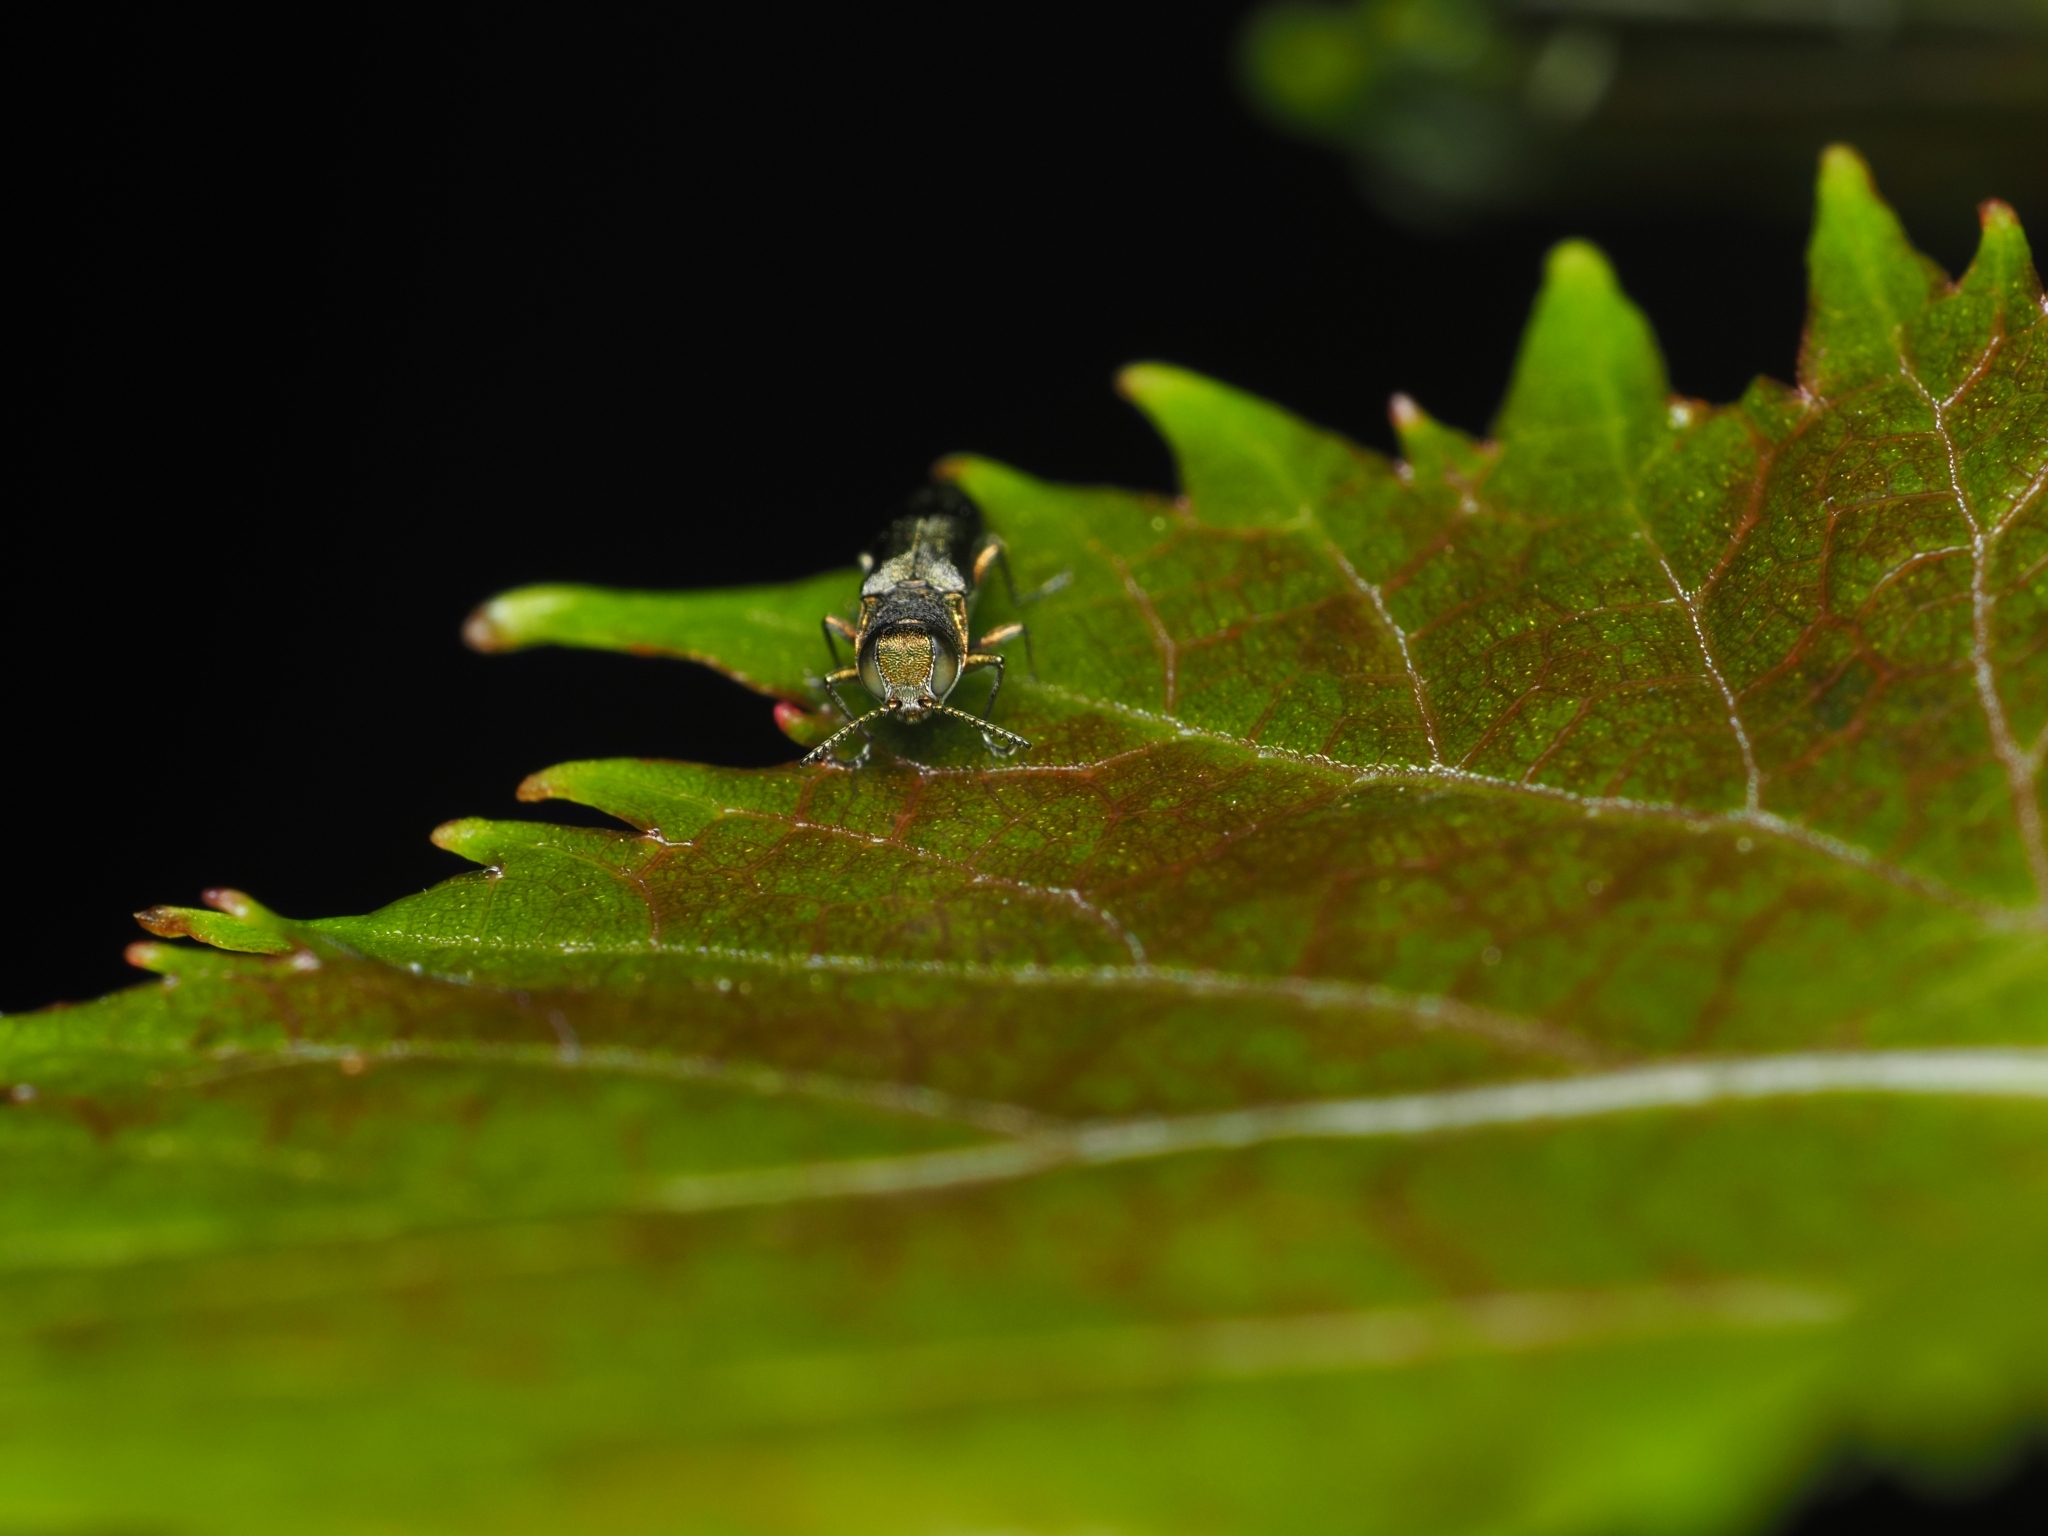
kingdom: Animalia
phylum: Arthropoda
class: Insecta
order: Coleoptera
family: Buprestidae
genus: Agrilus
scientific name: Agrilus derasofasciatus
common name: Metallic wood-boring beetle
